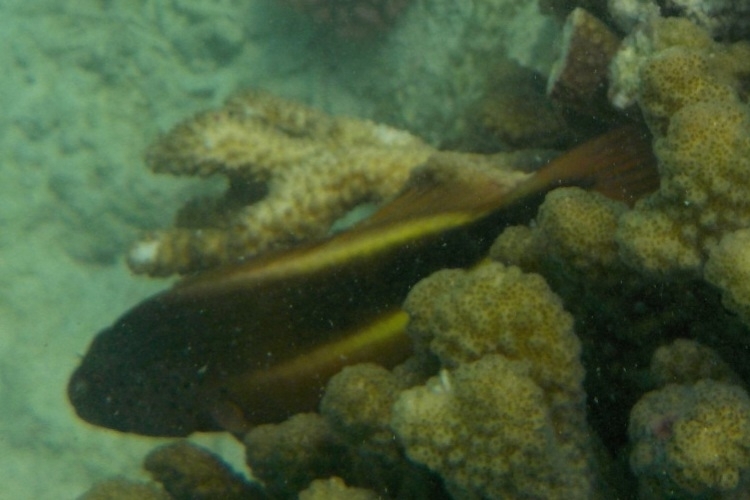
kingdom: Animalia
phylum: Chordata
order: Perciformes
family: Cirrhitidae
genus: Paracirrhites
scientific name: Paracirrhites forsteri
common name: Freckled hawkfish
